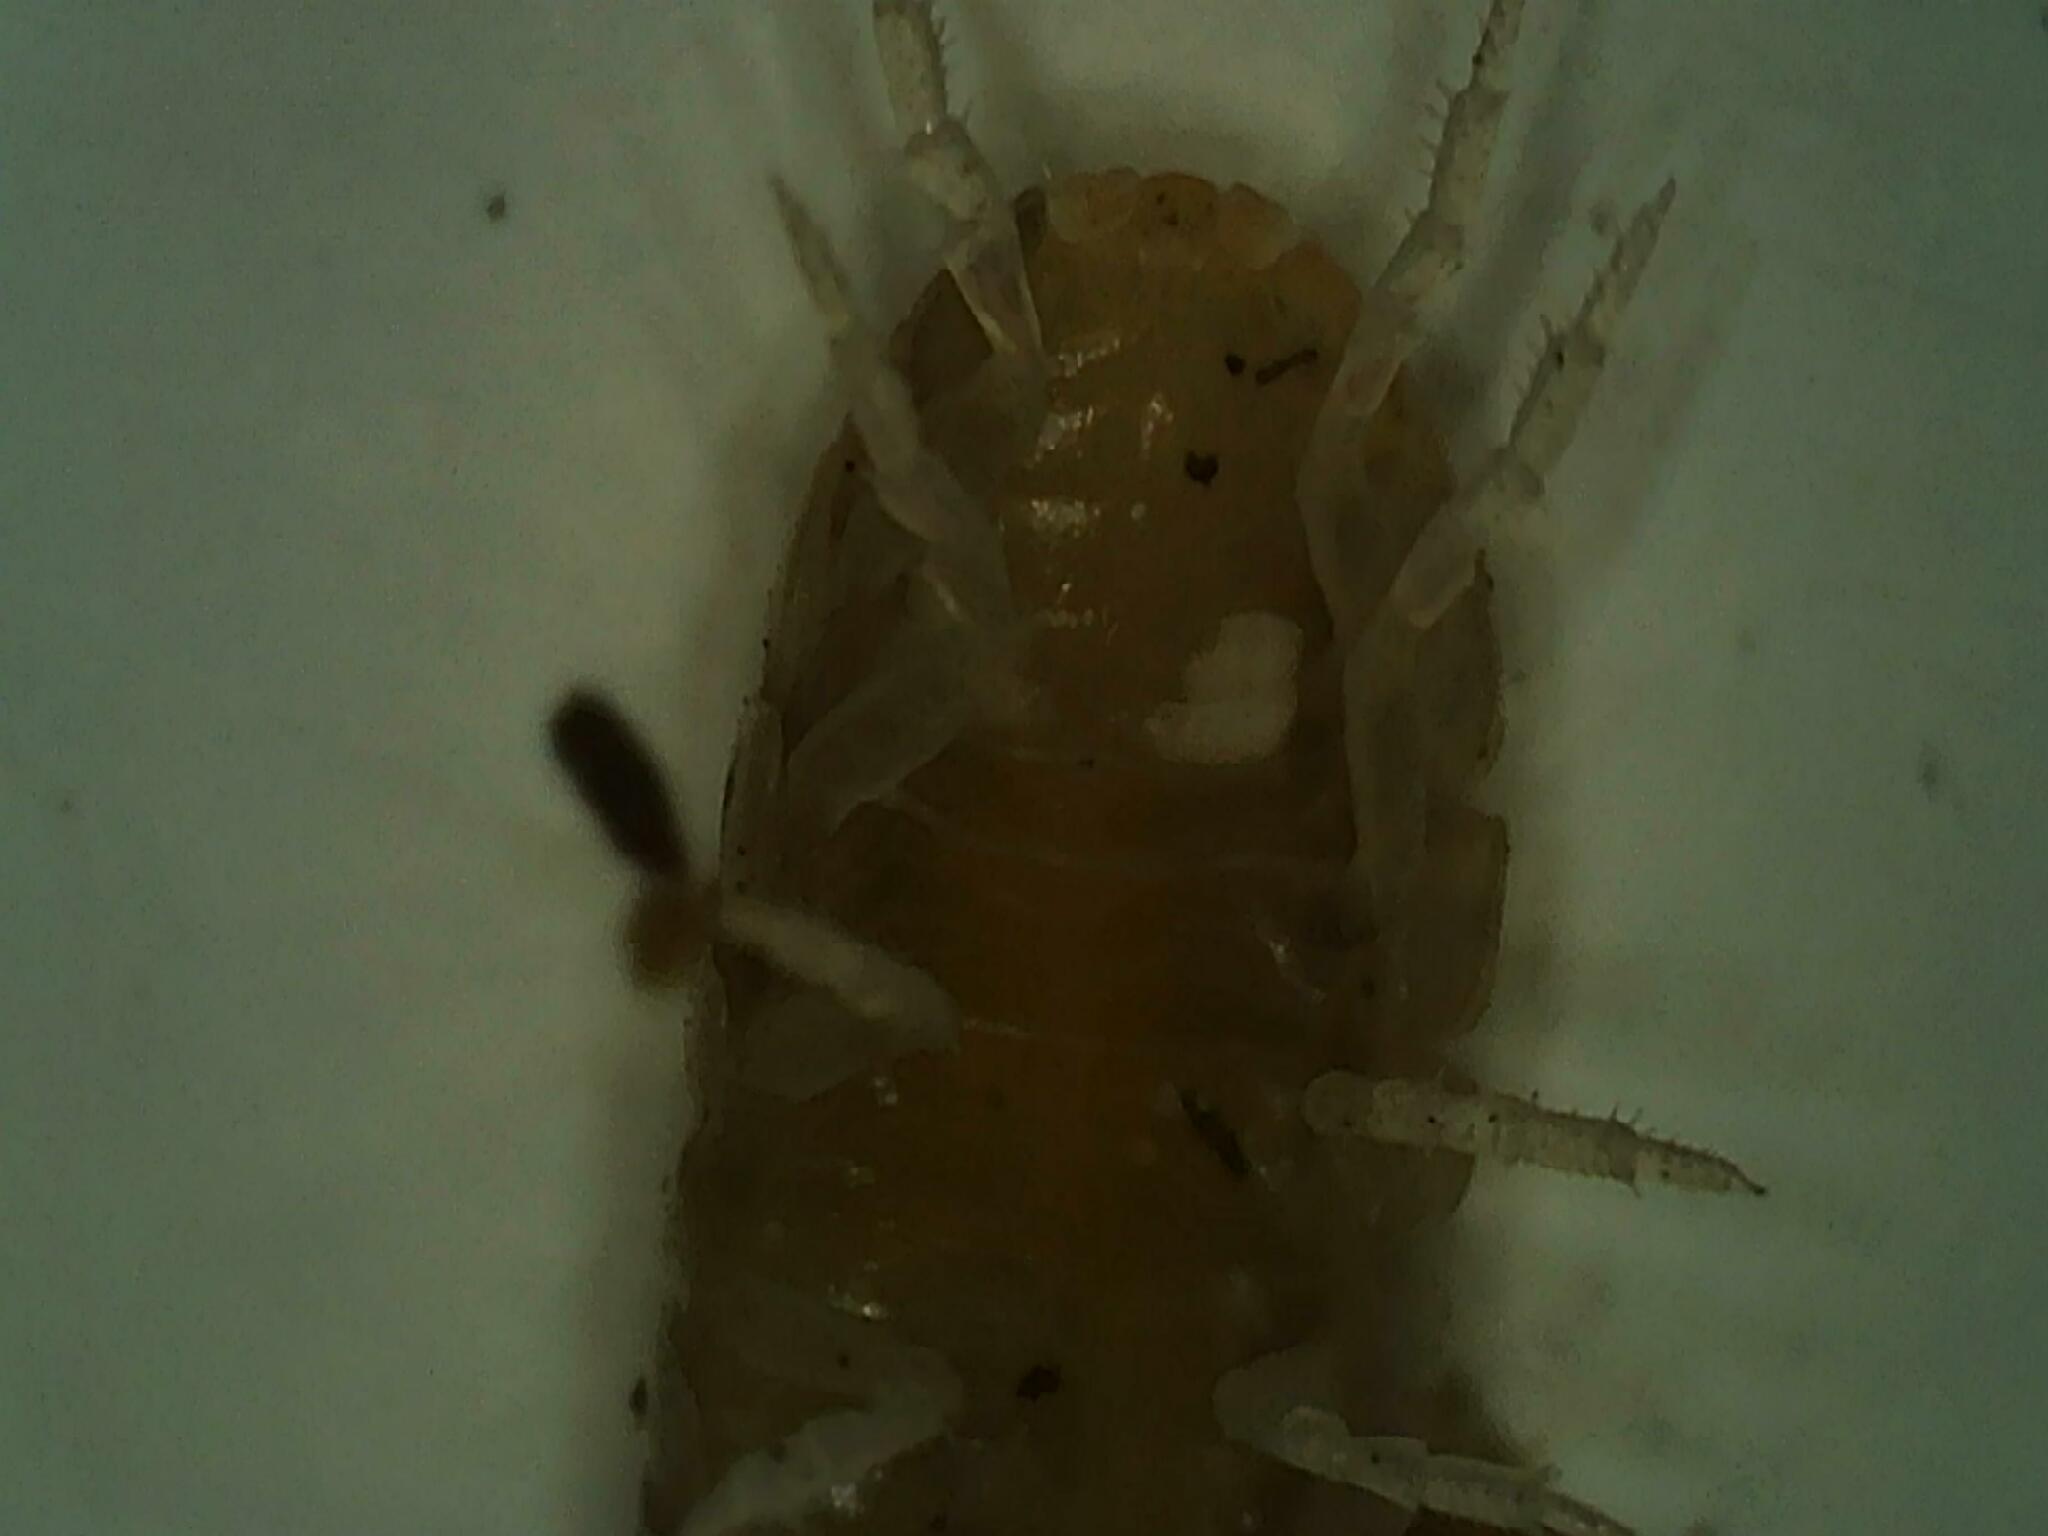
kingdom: Animalia
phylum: Arthropoda
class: Malacostraca
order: Isopoda
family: Armadillidiidae
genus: Armadillidium
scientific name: Armadillidium vulgare
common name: Common pill woodlouse
